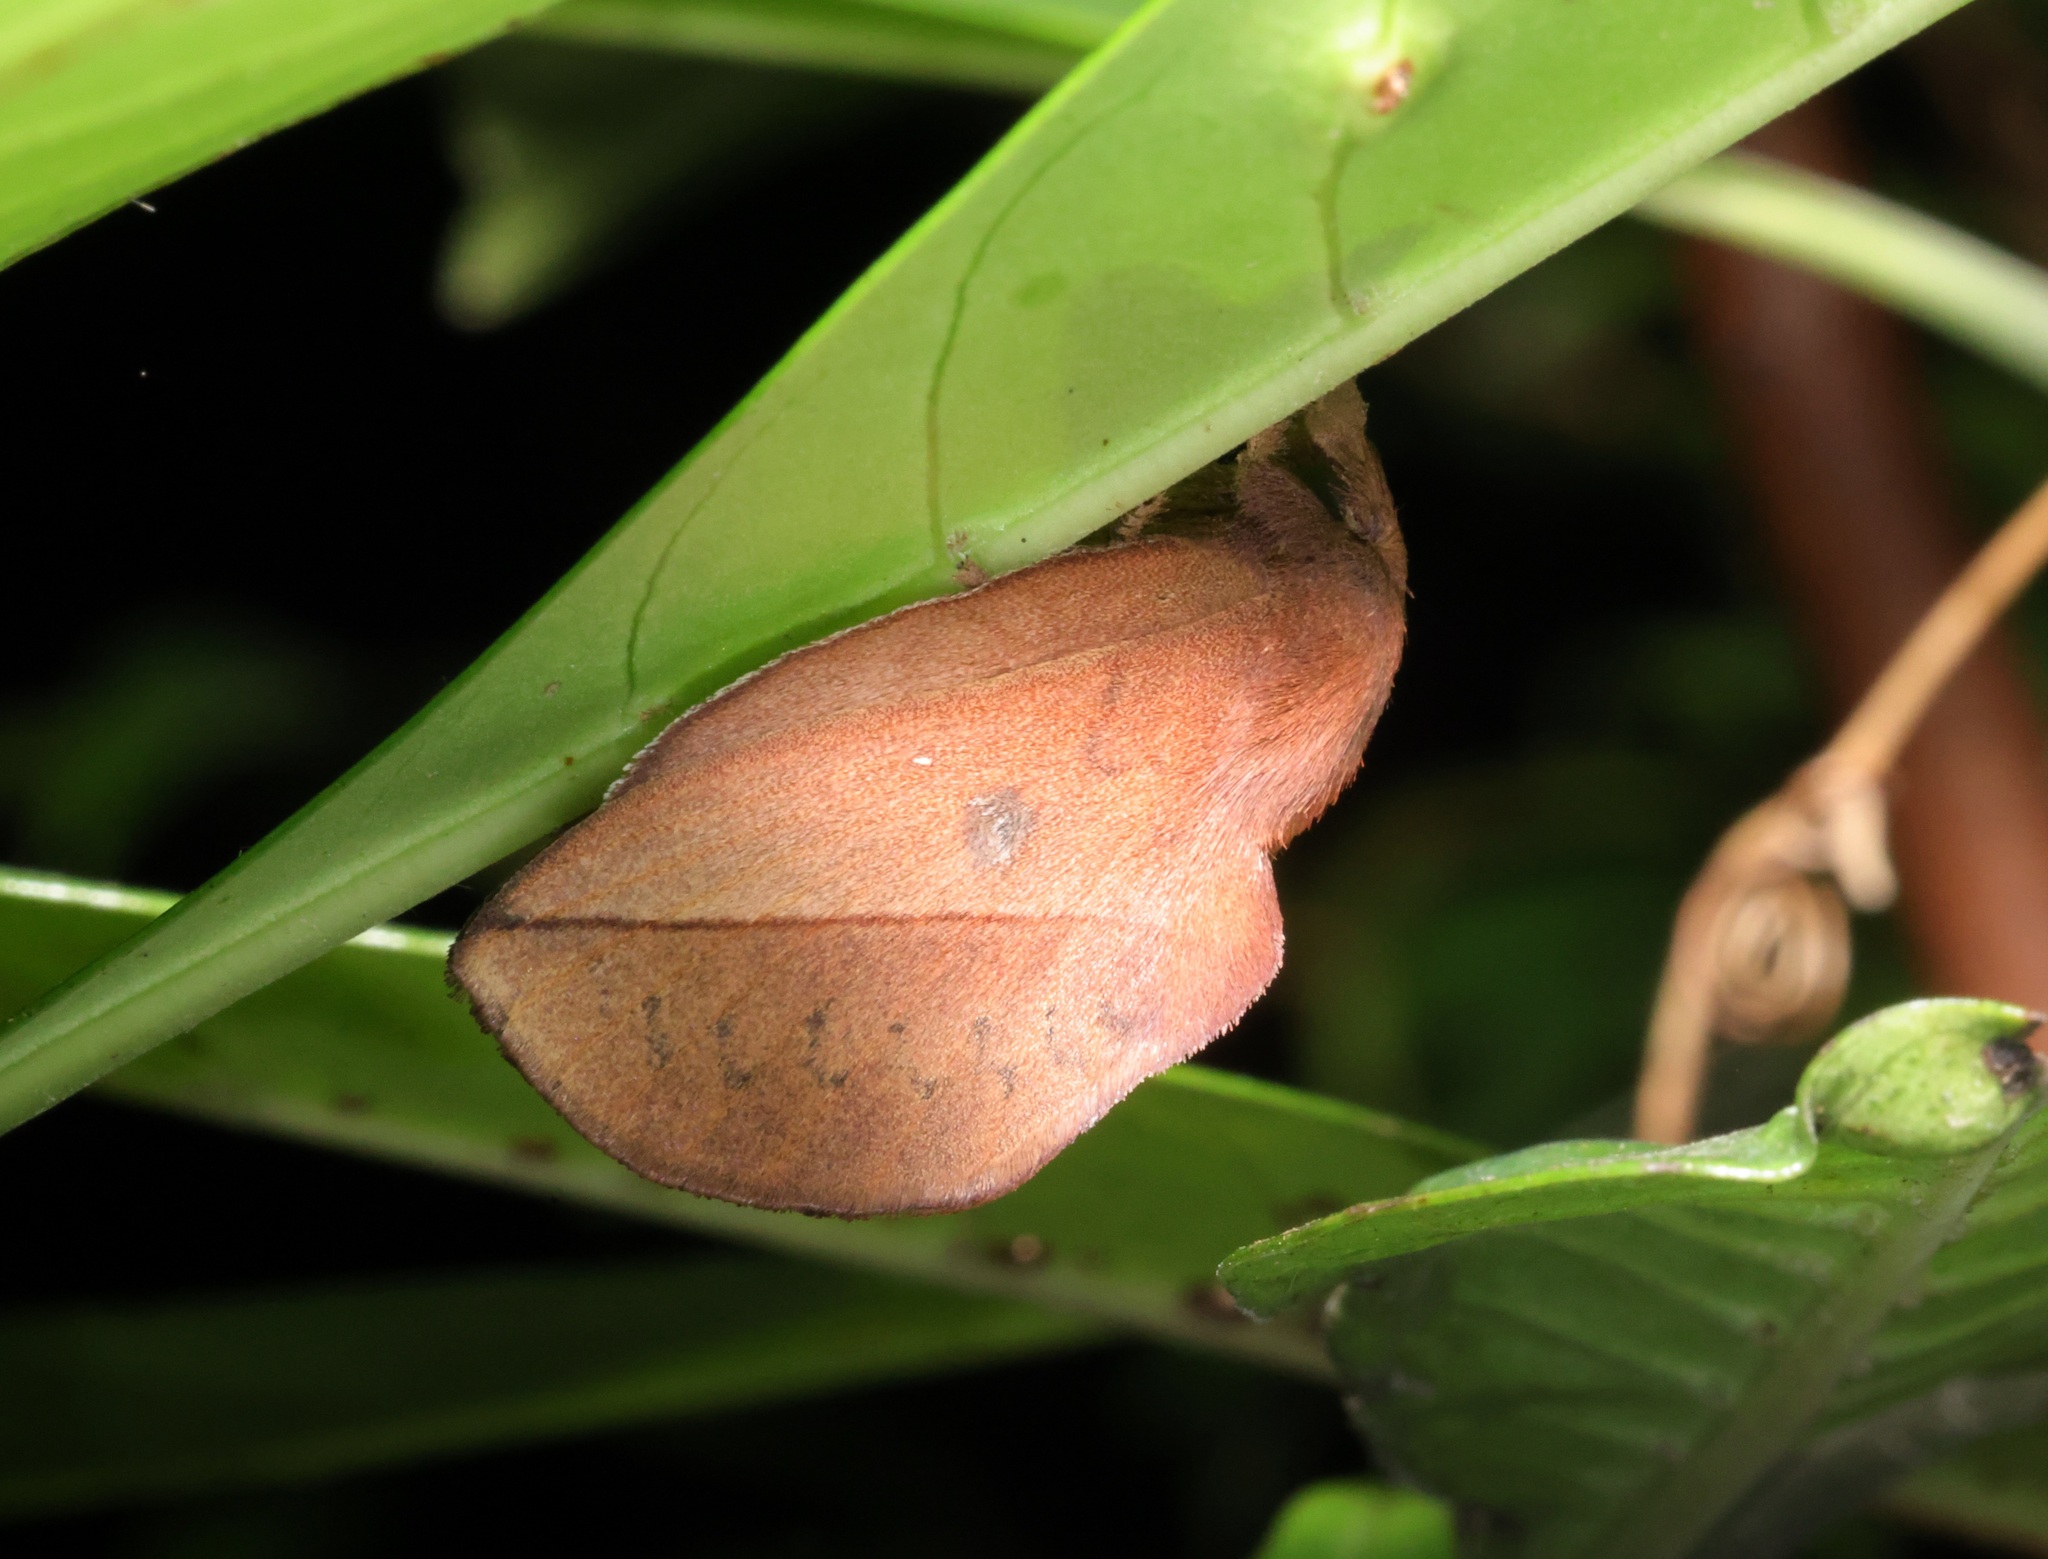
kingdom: Animalia
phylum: Arthropoda
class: Insecta
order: Lepidoptera
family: Lasiocampidae
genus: Euthrix
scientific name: Euthrix isocyma
